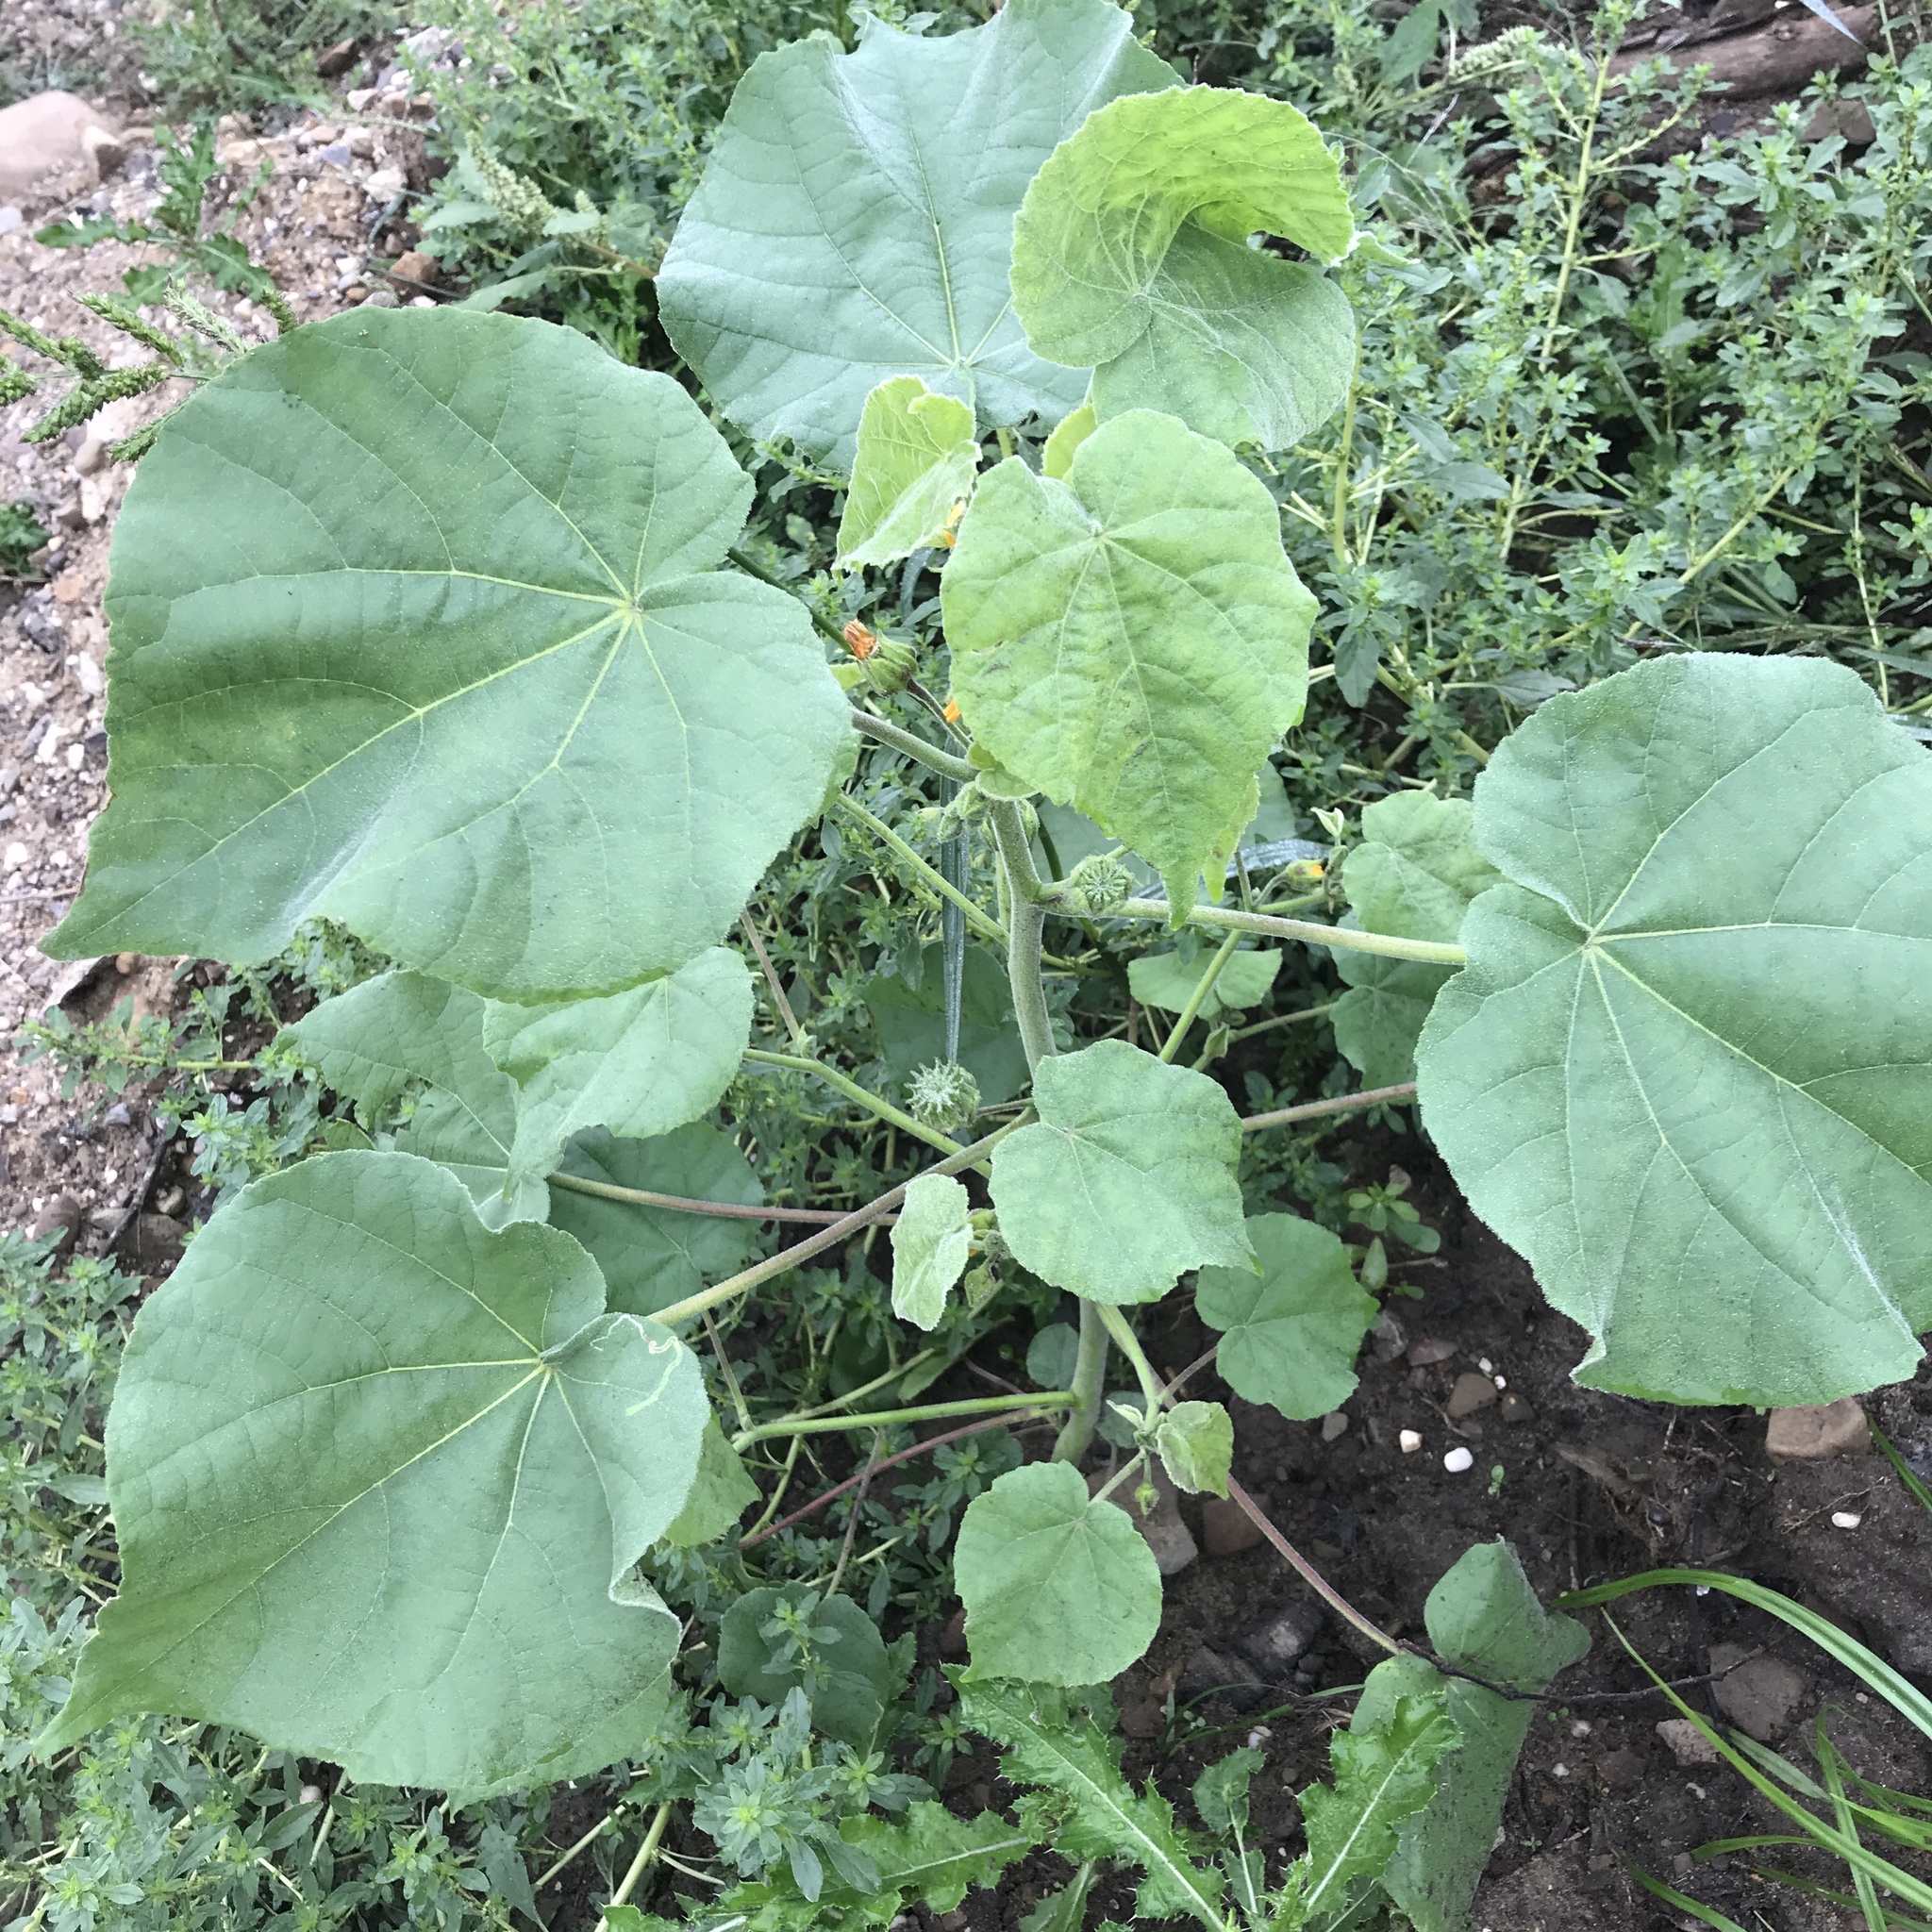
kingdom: Plantae
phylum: Tracheophyta
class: Magnoliopsida
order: Malvales
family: Malvaceae
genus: Abutilon
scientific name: Abutilon theophrasti
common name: Velvetleaf
